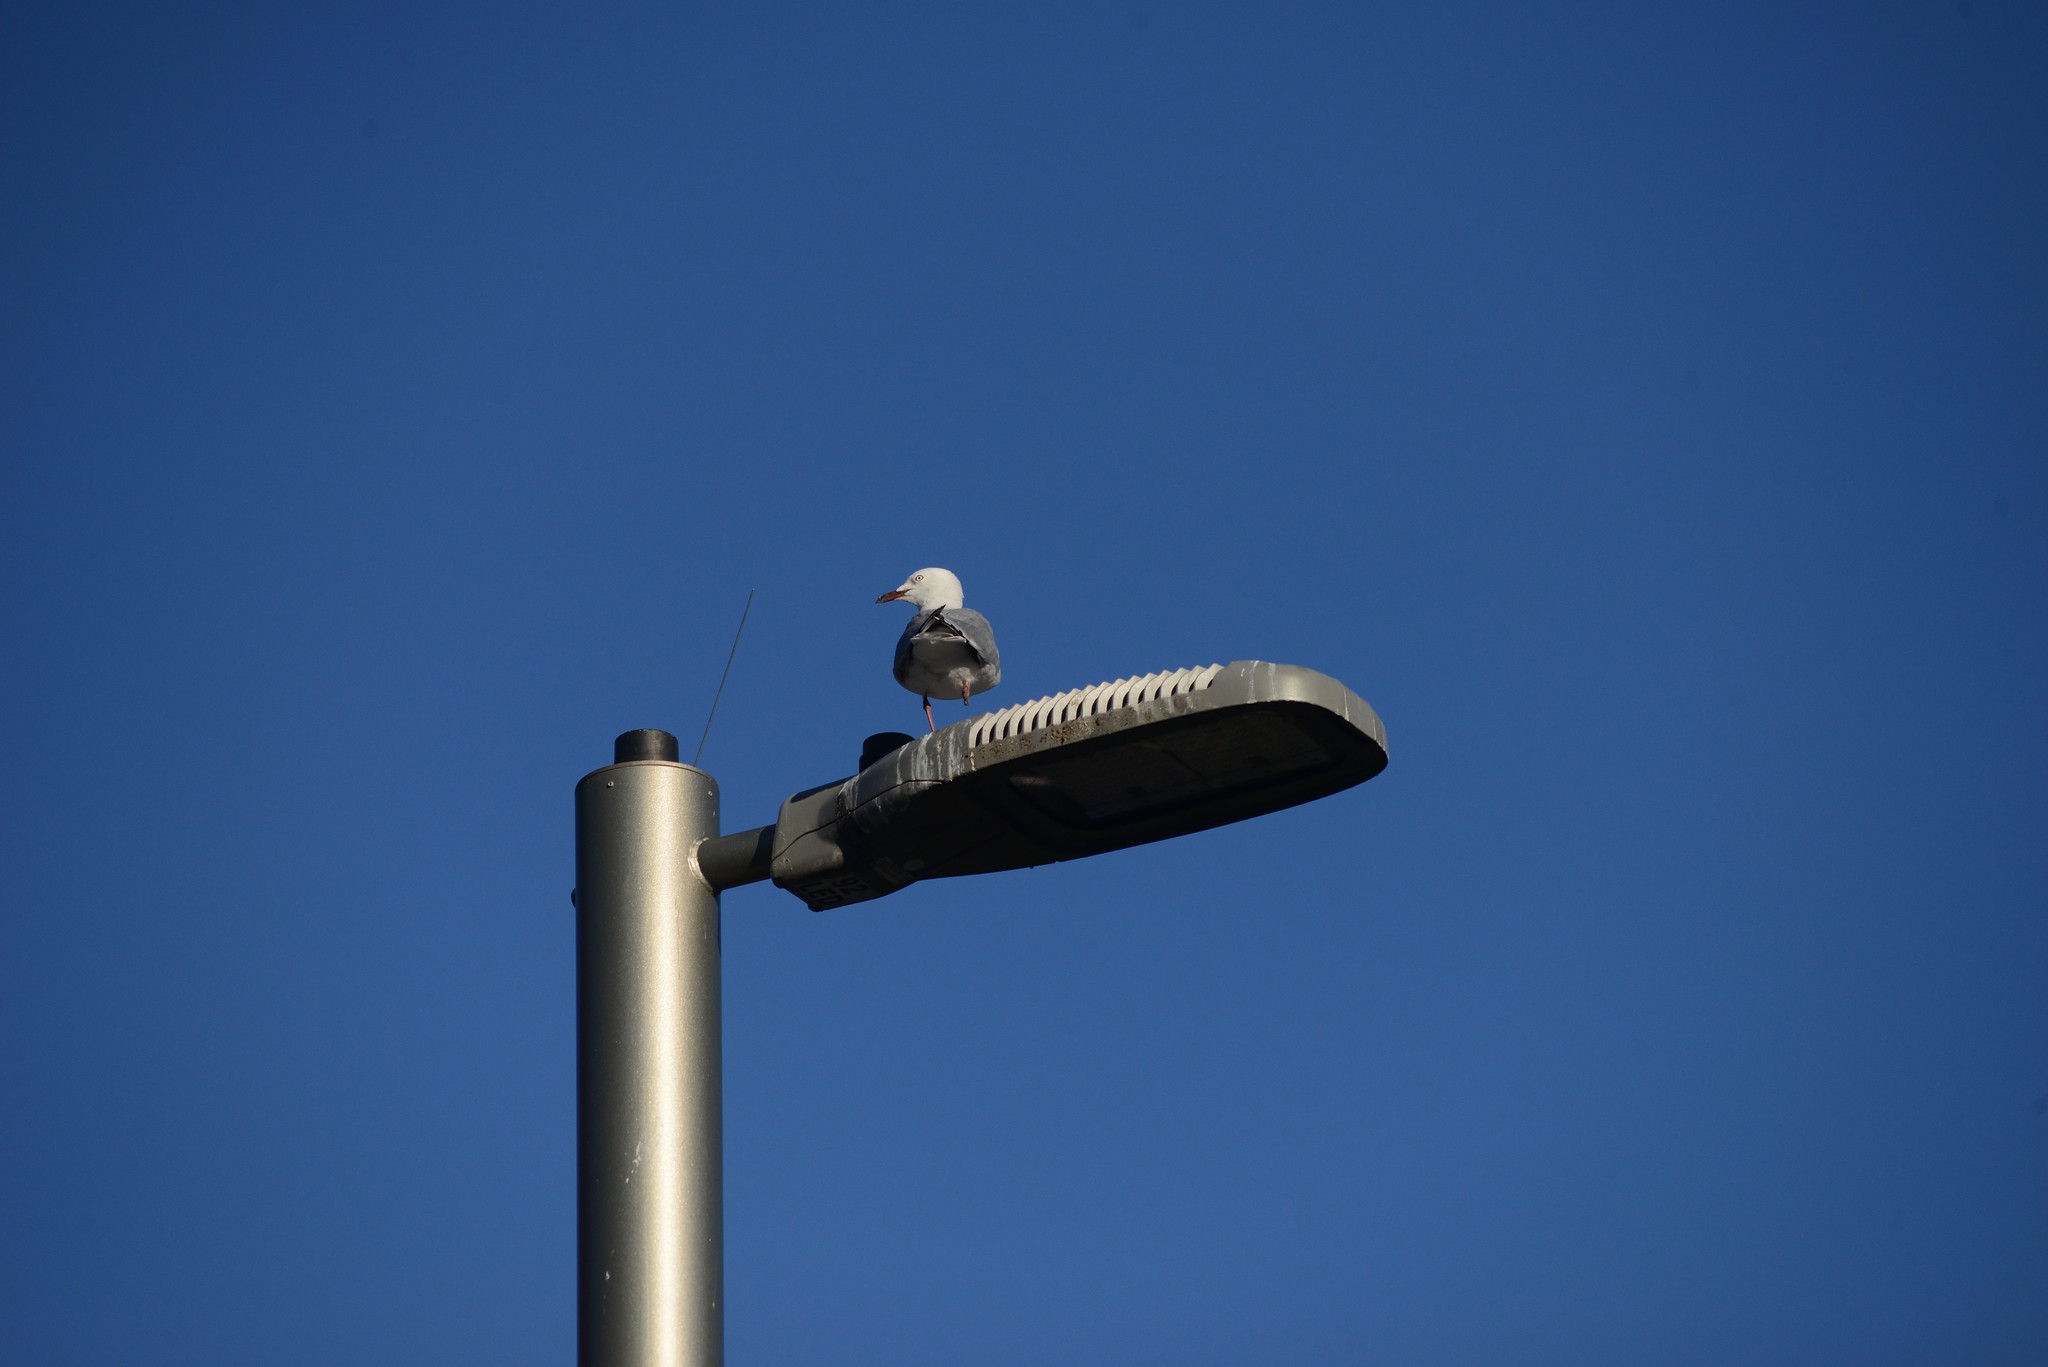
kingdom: Animalia
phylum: Chordata
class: Aves
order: Charadriiformes
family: Laridae
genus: Chroicocephalus
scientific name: Chroicocephalus novaehollandiae
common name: Silver gull
